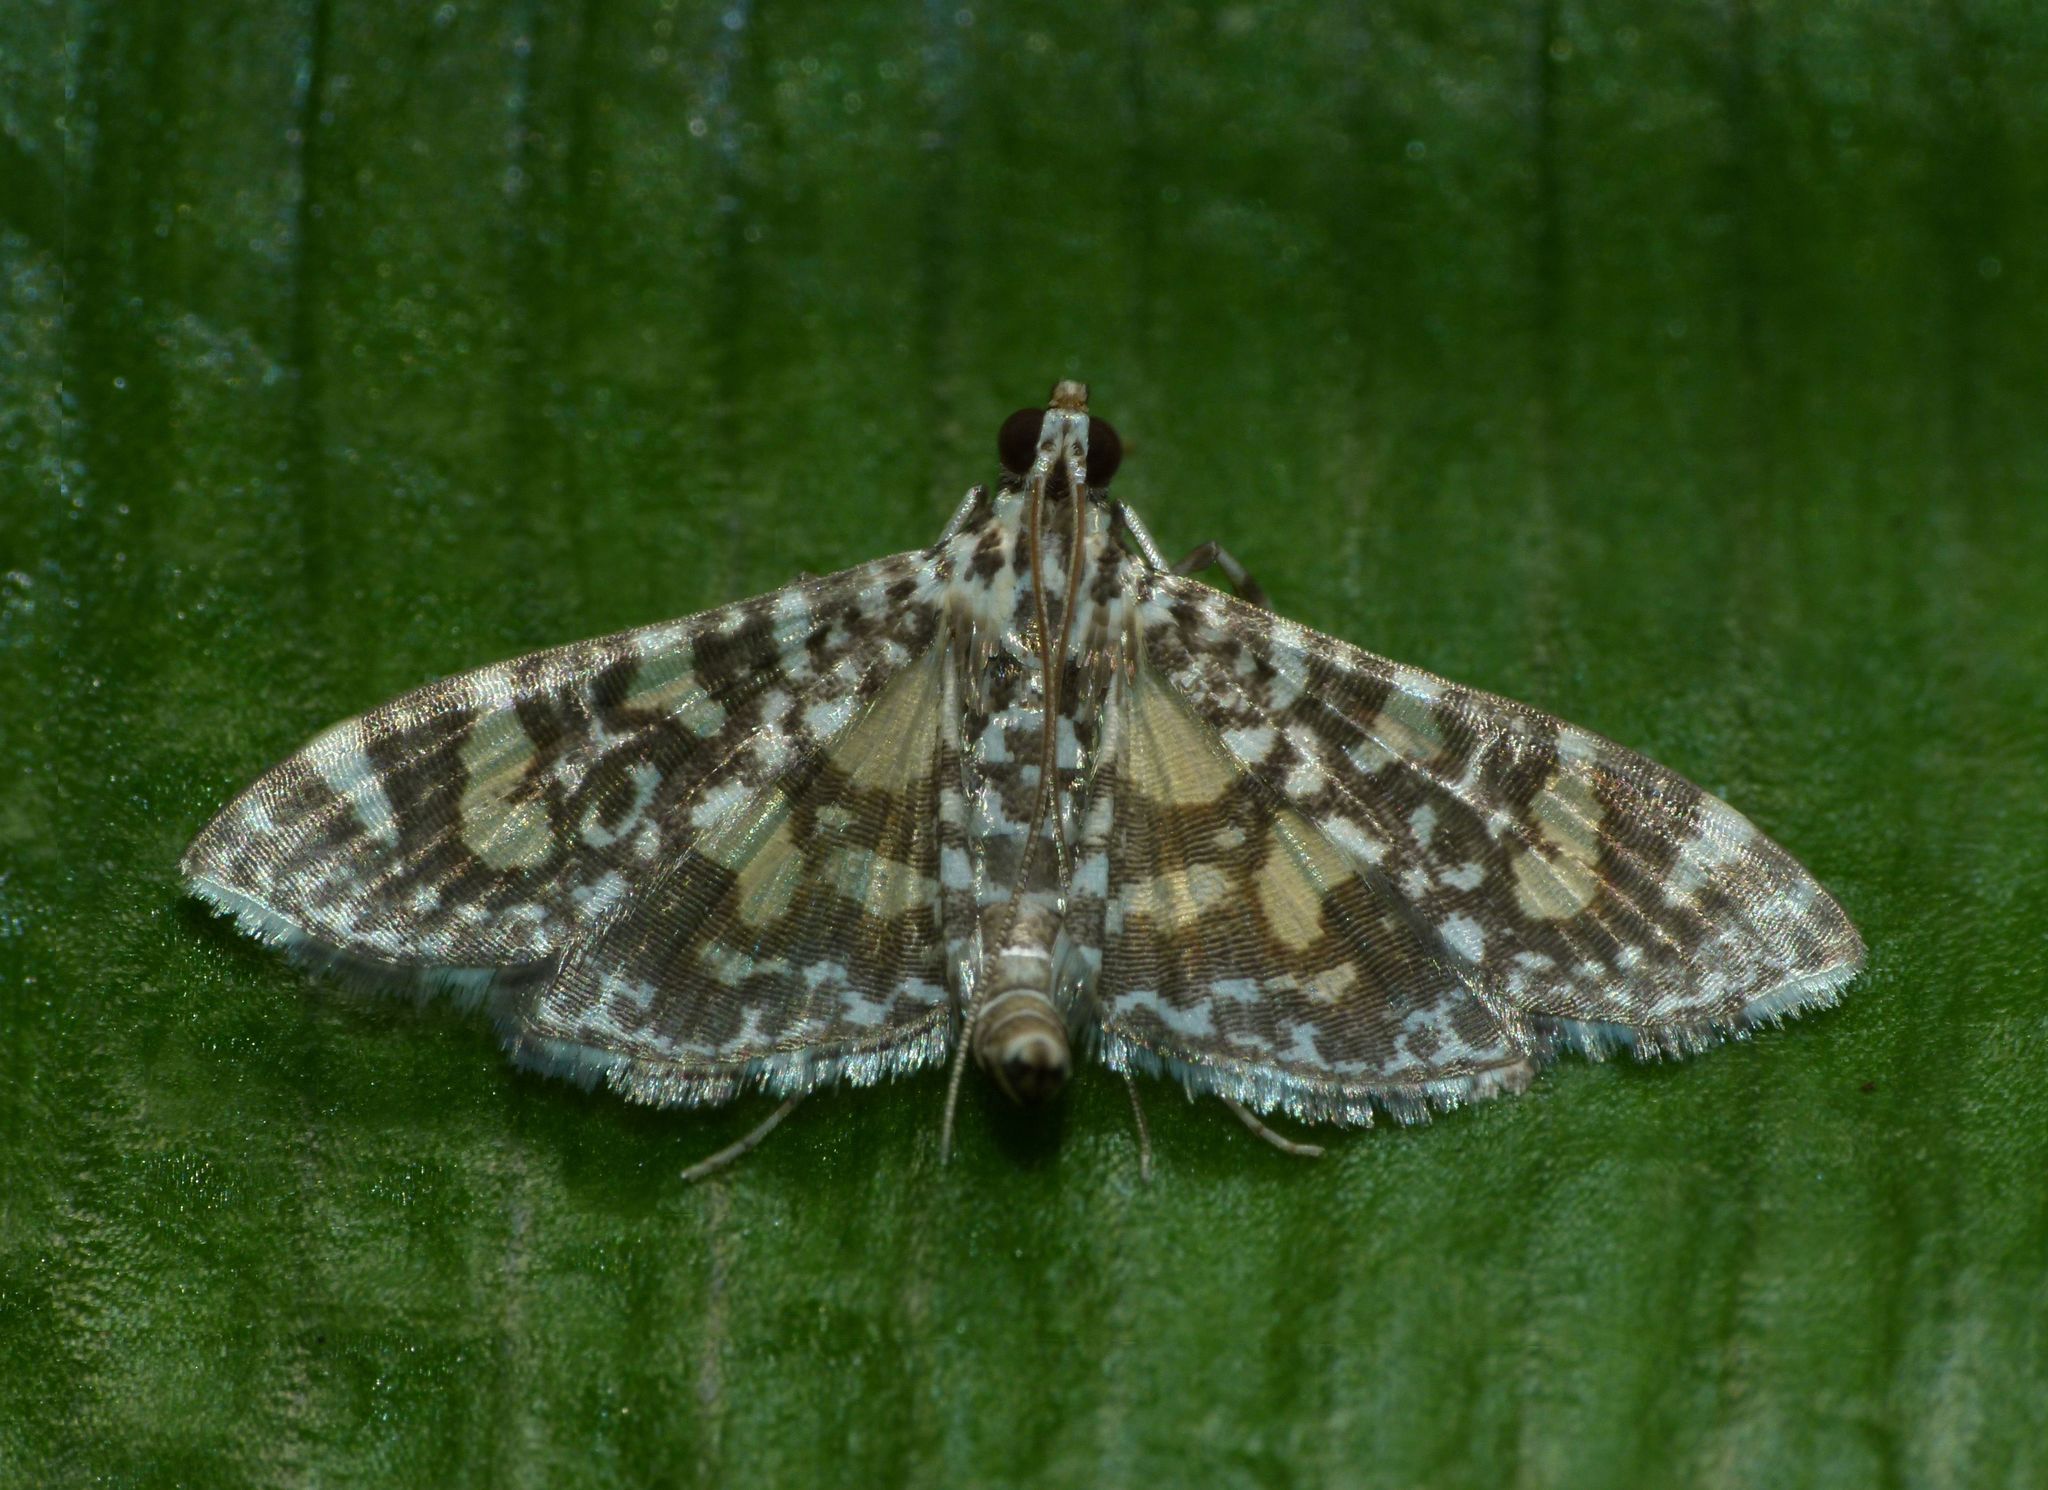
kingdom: Animalia
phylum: Arthropoda
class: Insecta
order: Lepidoptera
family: Crambidae
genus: Glyphodes
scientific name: Glyphodes onychinalis
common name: Swan plant moth
